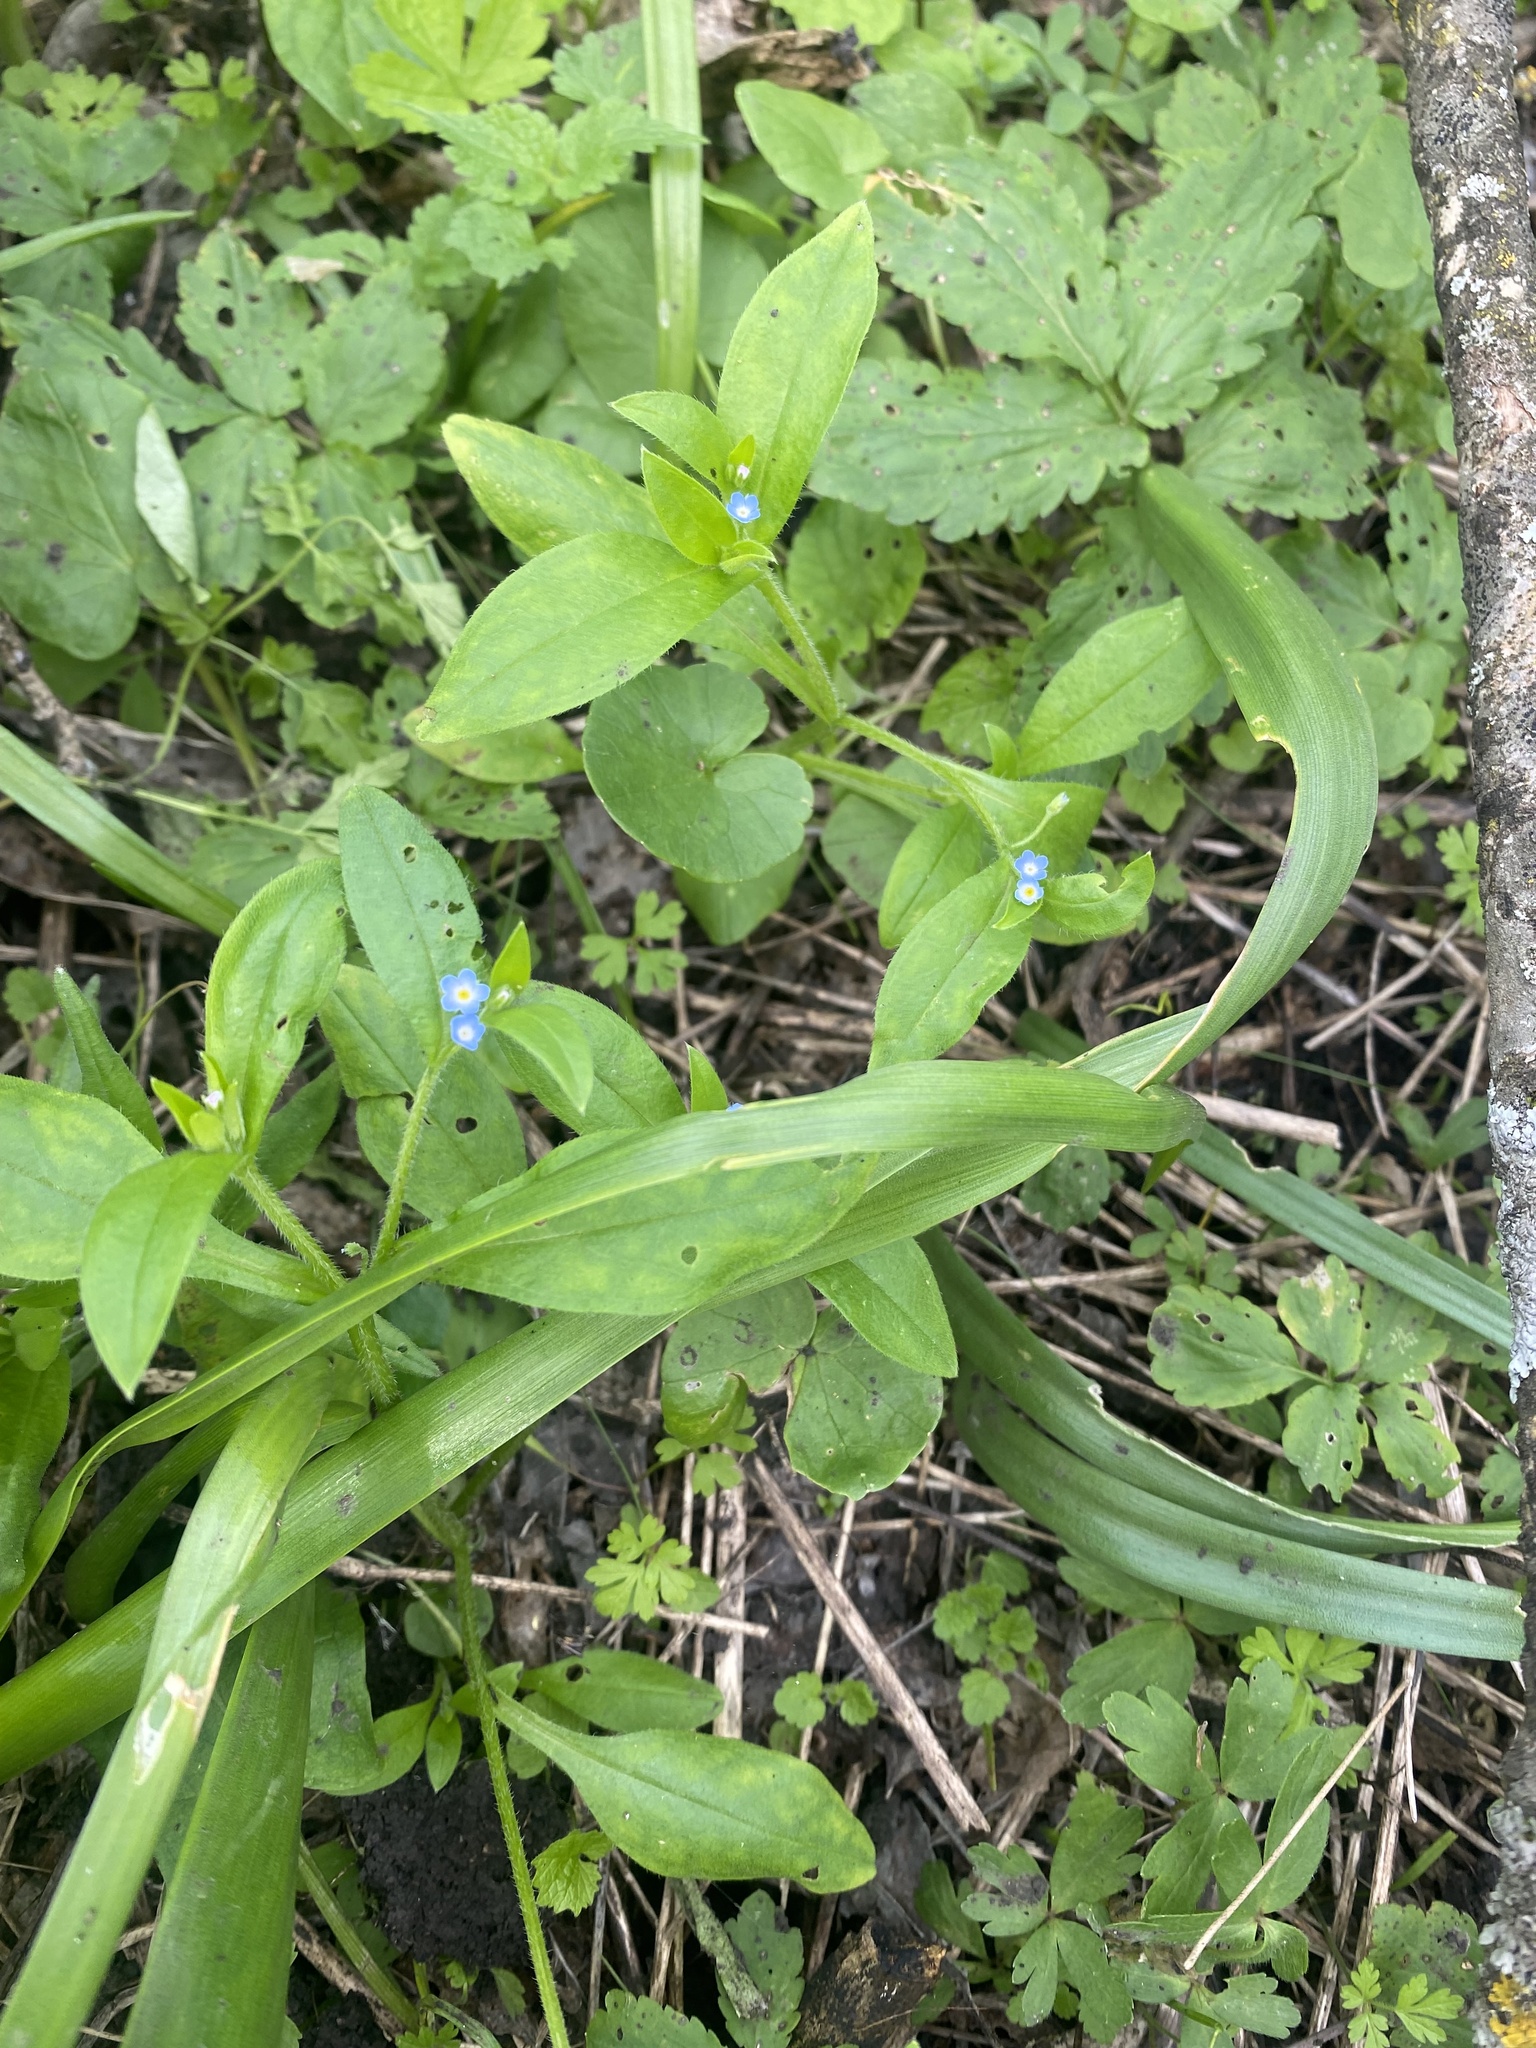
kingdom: Plantae
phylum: Tracheophyta
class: Magnoliopsida
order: Boraginales
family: Boraginaceae
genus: Myosotis
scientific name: Myosotis sparsiflora
